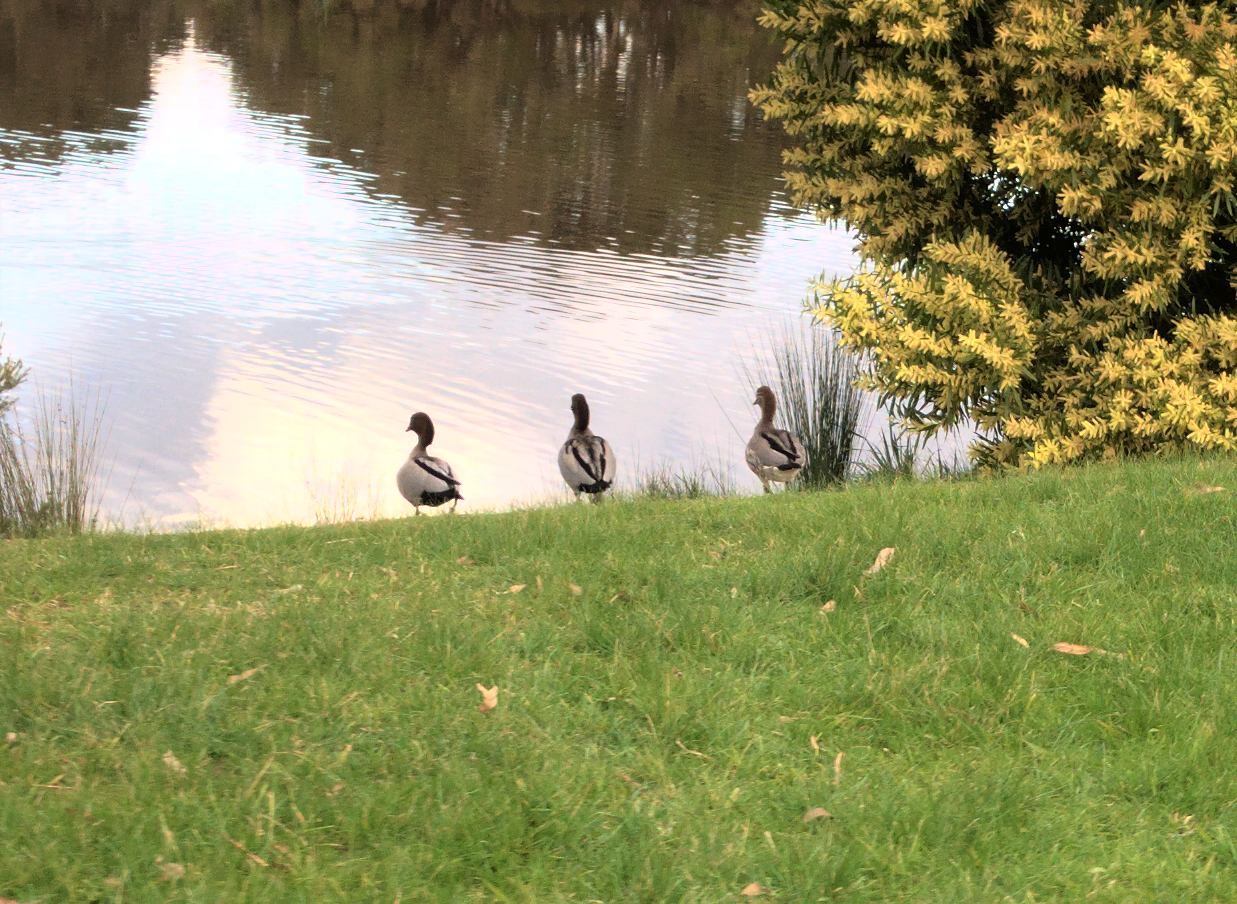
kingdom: Animalia
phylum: Chordata
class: Aves
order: Anseriformes
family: Anatidae
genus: Chenonetta
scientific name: Chenonetta jubata
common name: Maned duck
